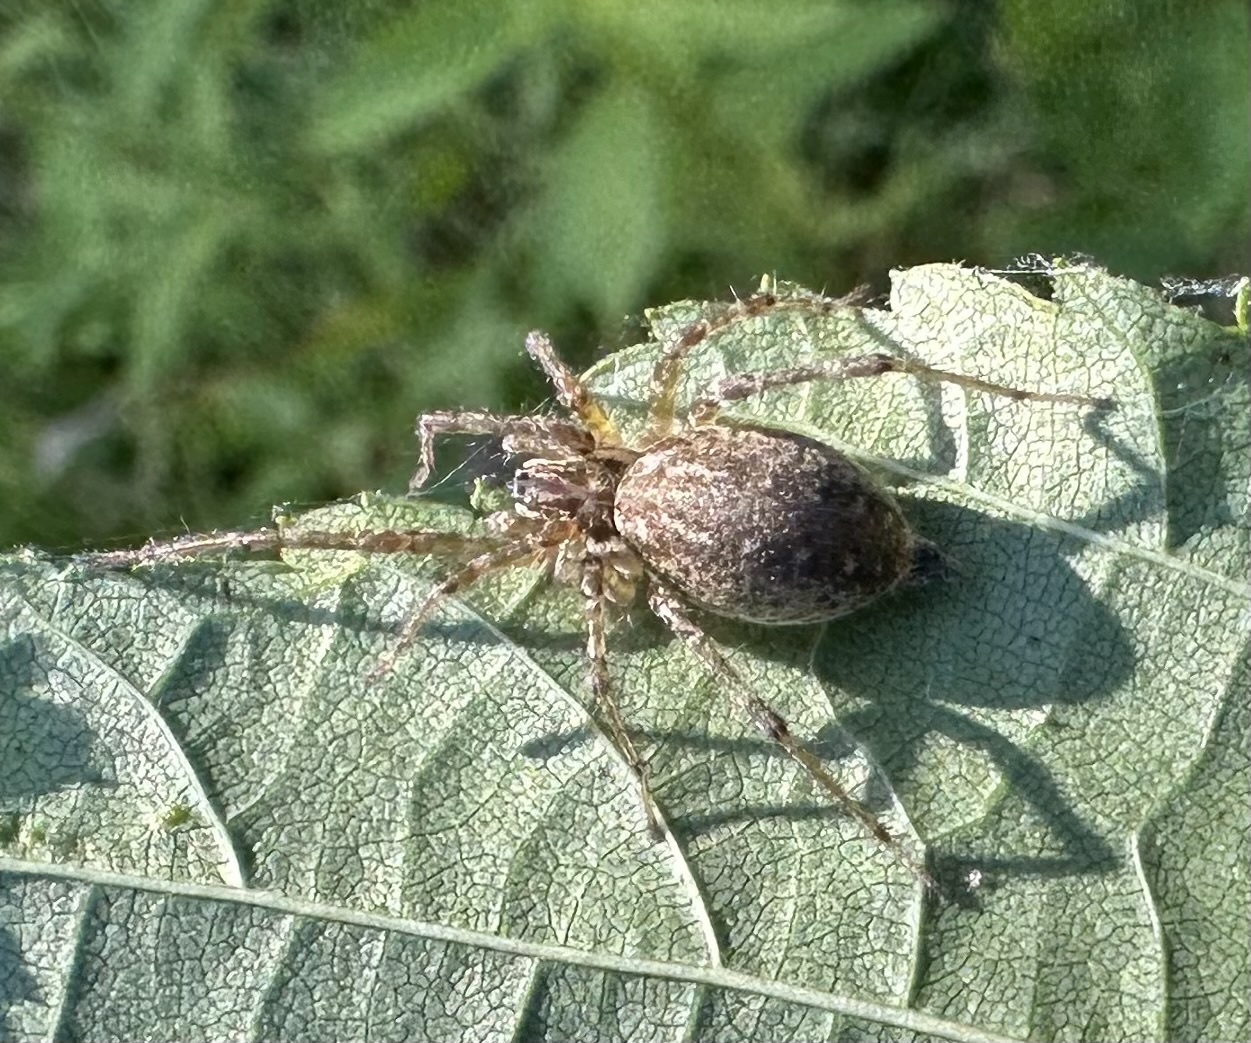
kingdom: Animalia
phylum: Arthropoda
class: Arachnida
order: Araneae
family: Agelenidae
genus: Allagelena
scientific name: Allagelena gracilens
